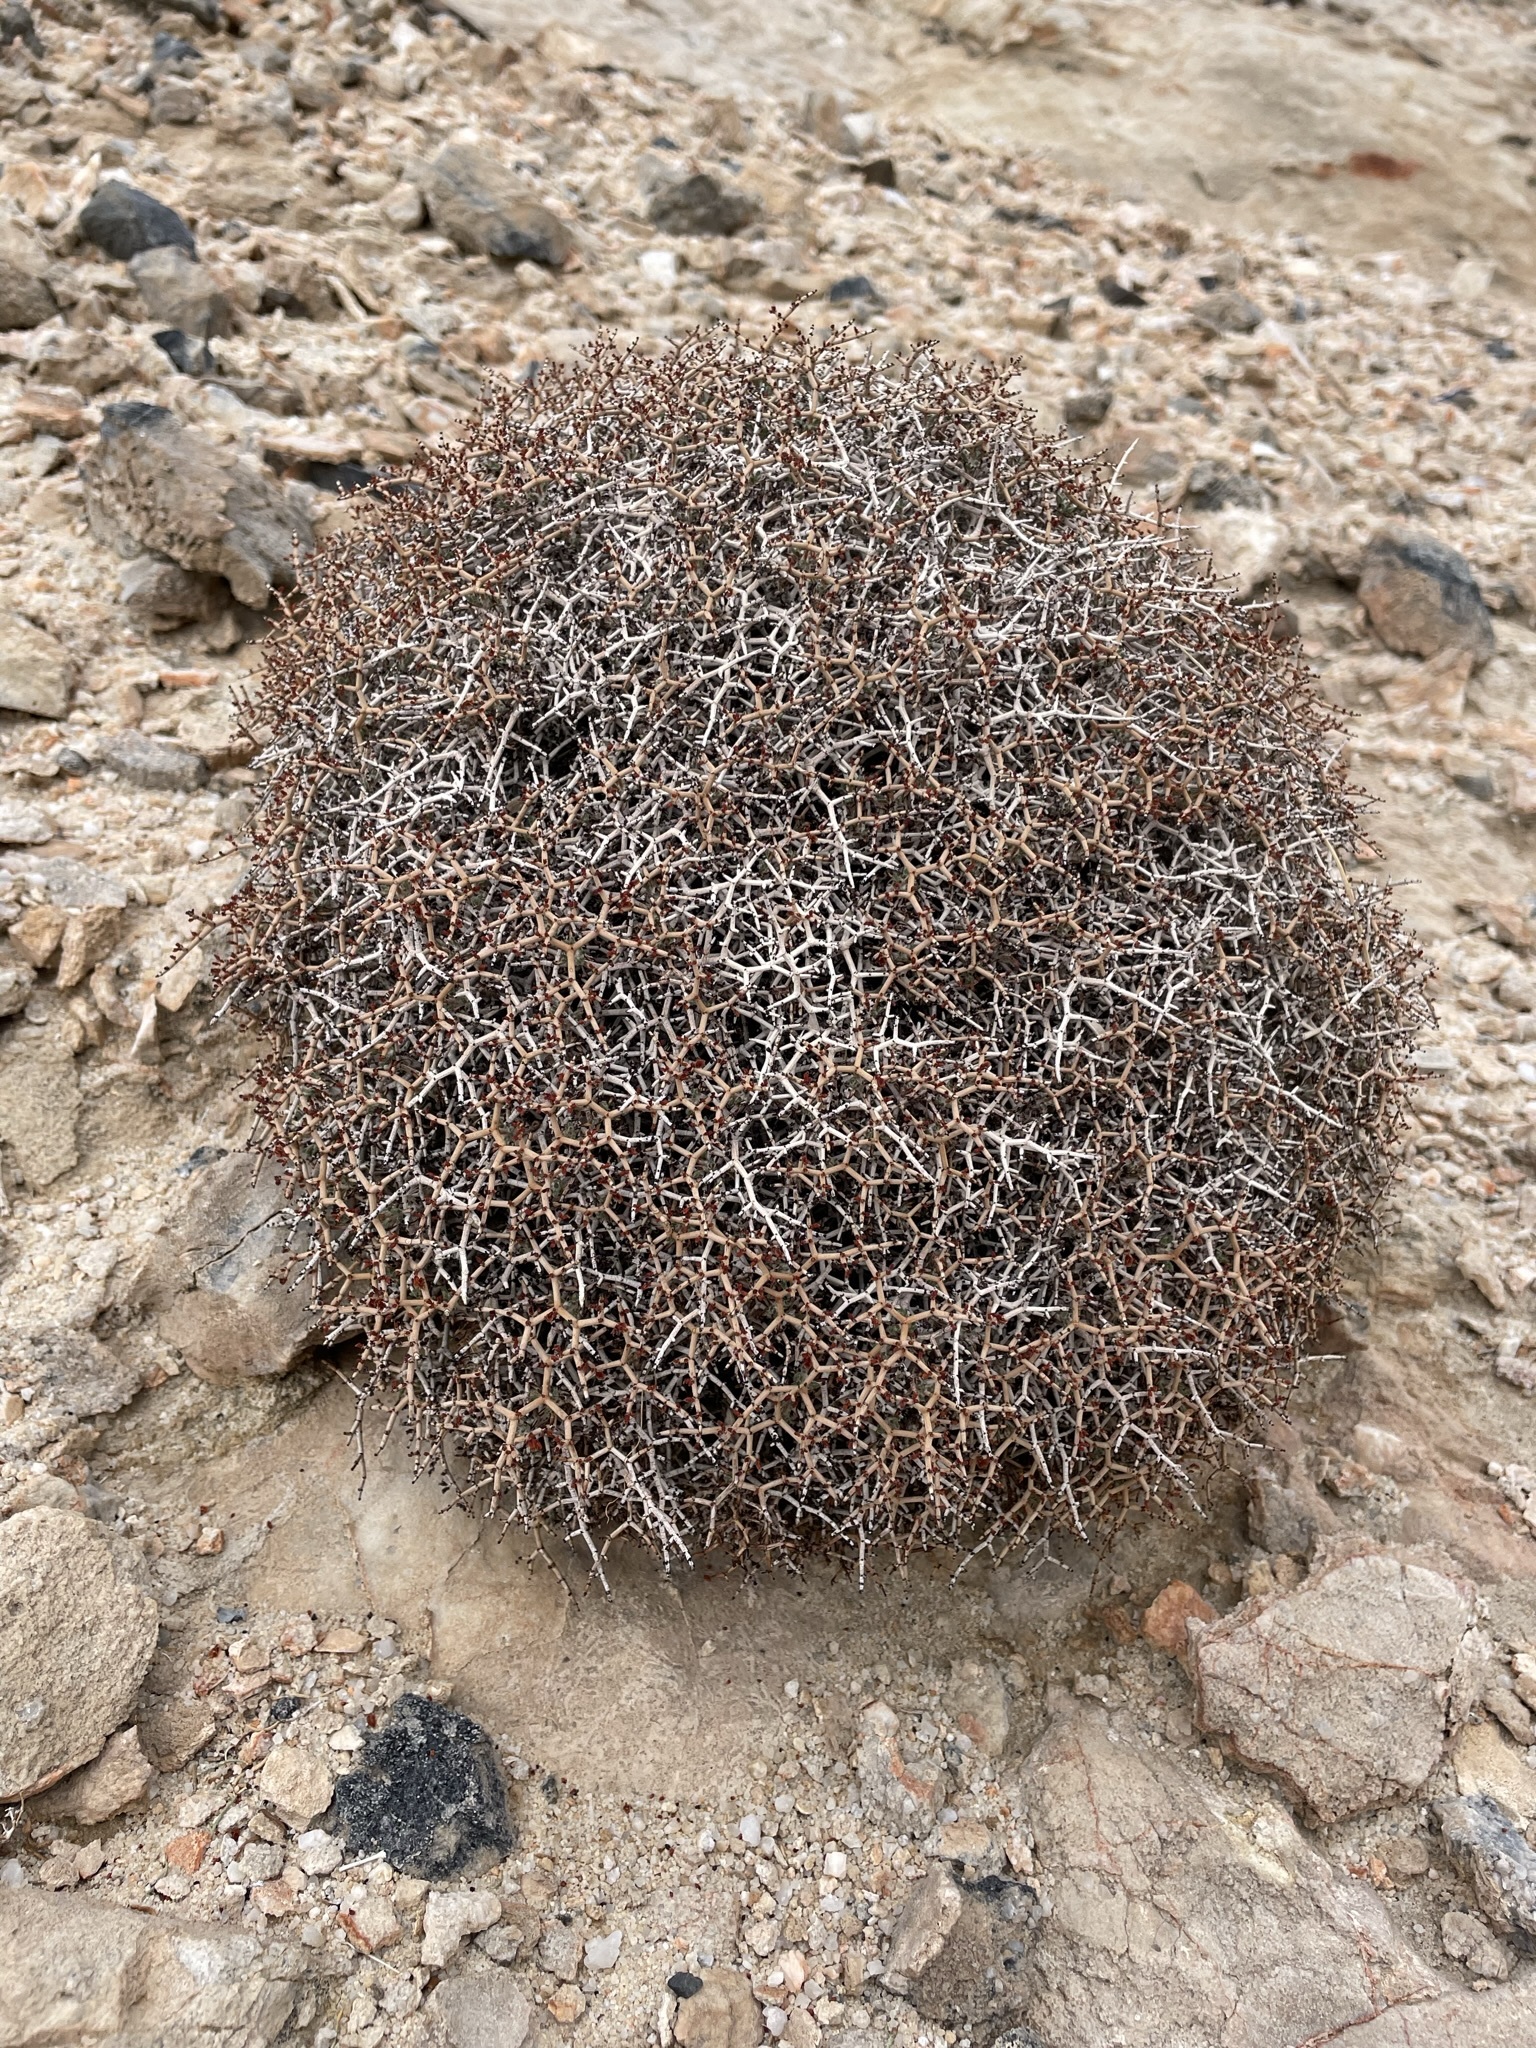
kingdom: Plantae
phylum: Tracheophyta
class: Magnoliopsida
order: Caryophyllales
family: Polygonaceae
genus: Eriogonum
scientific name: Eriogonum heermannii
